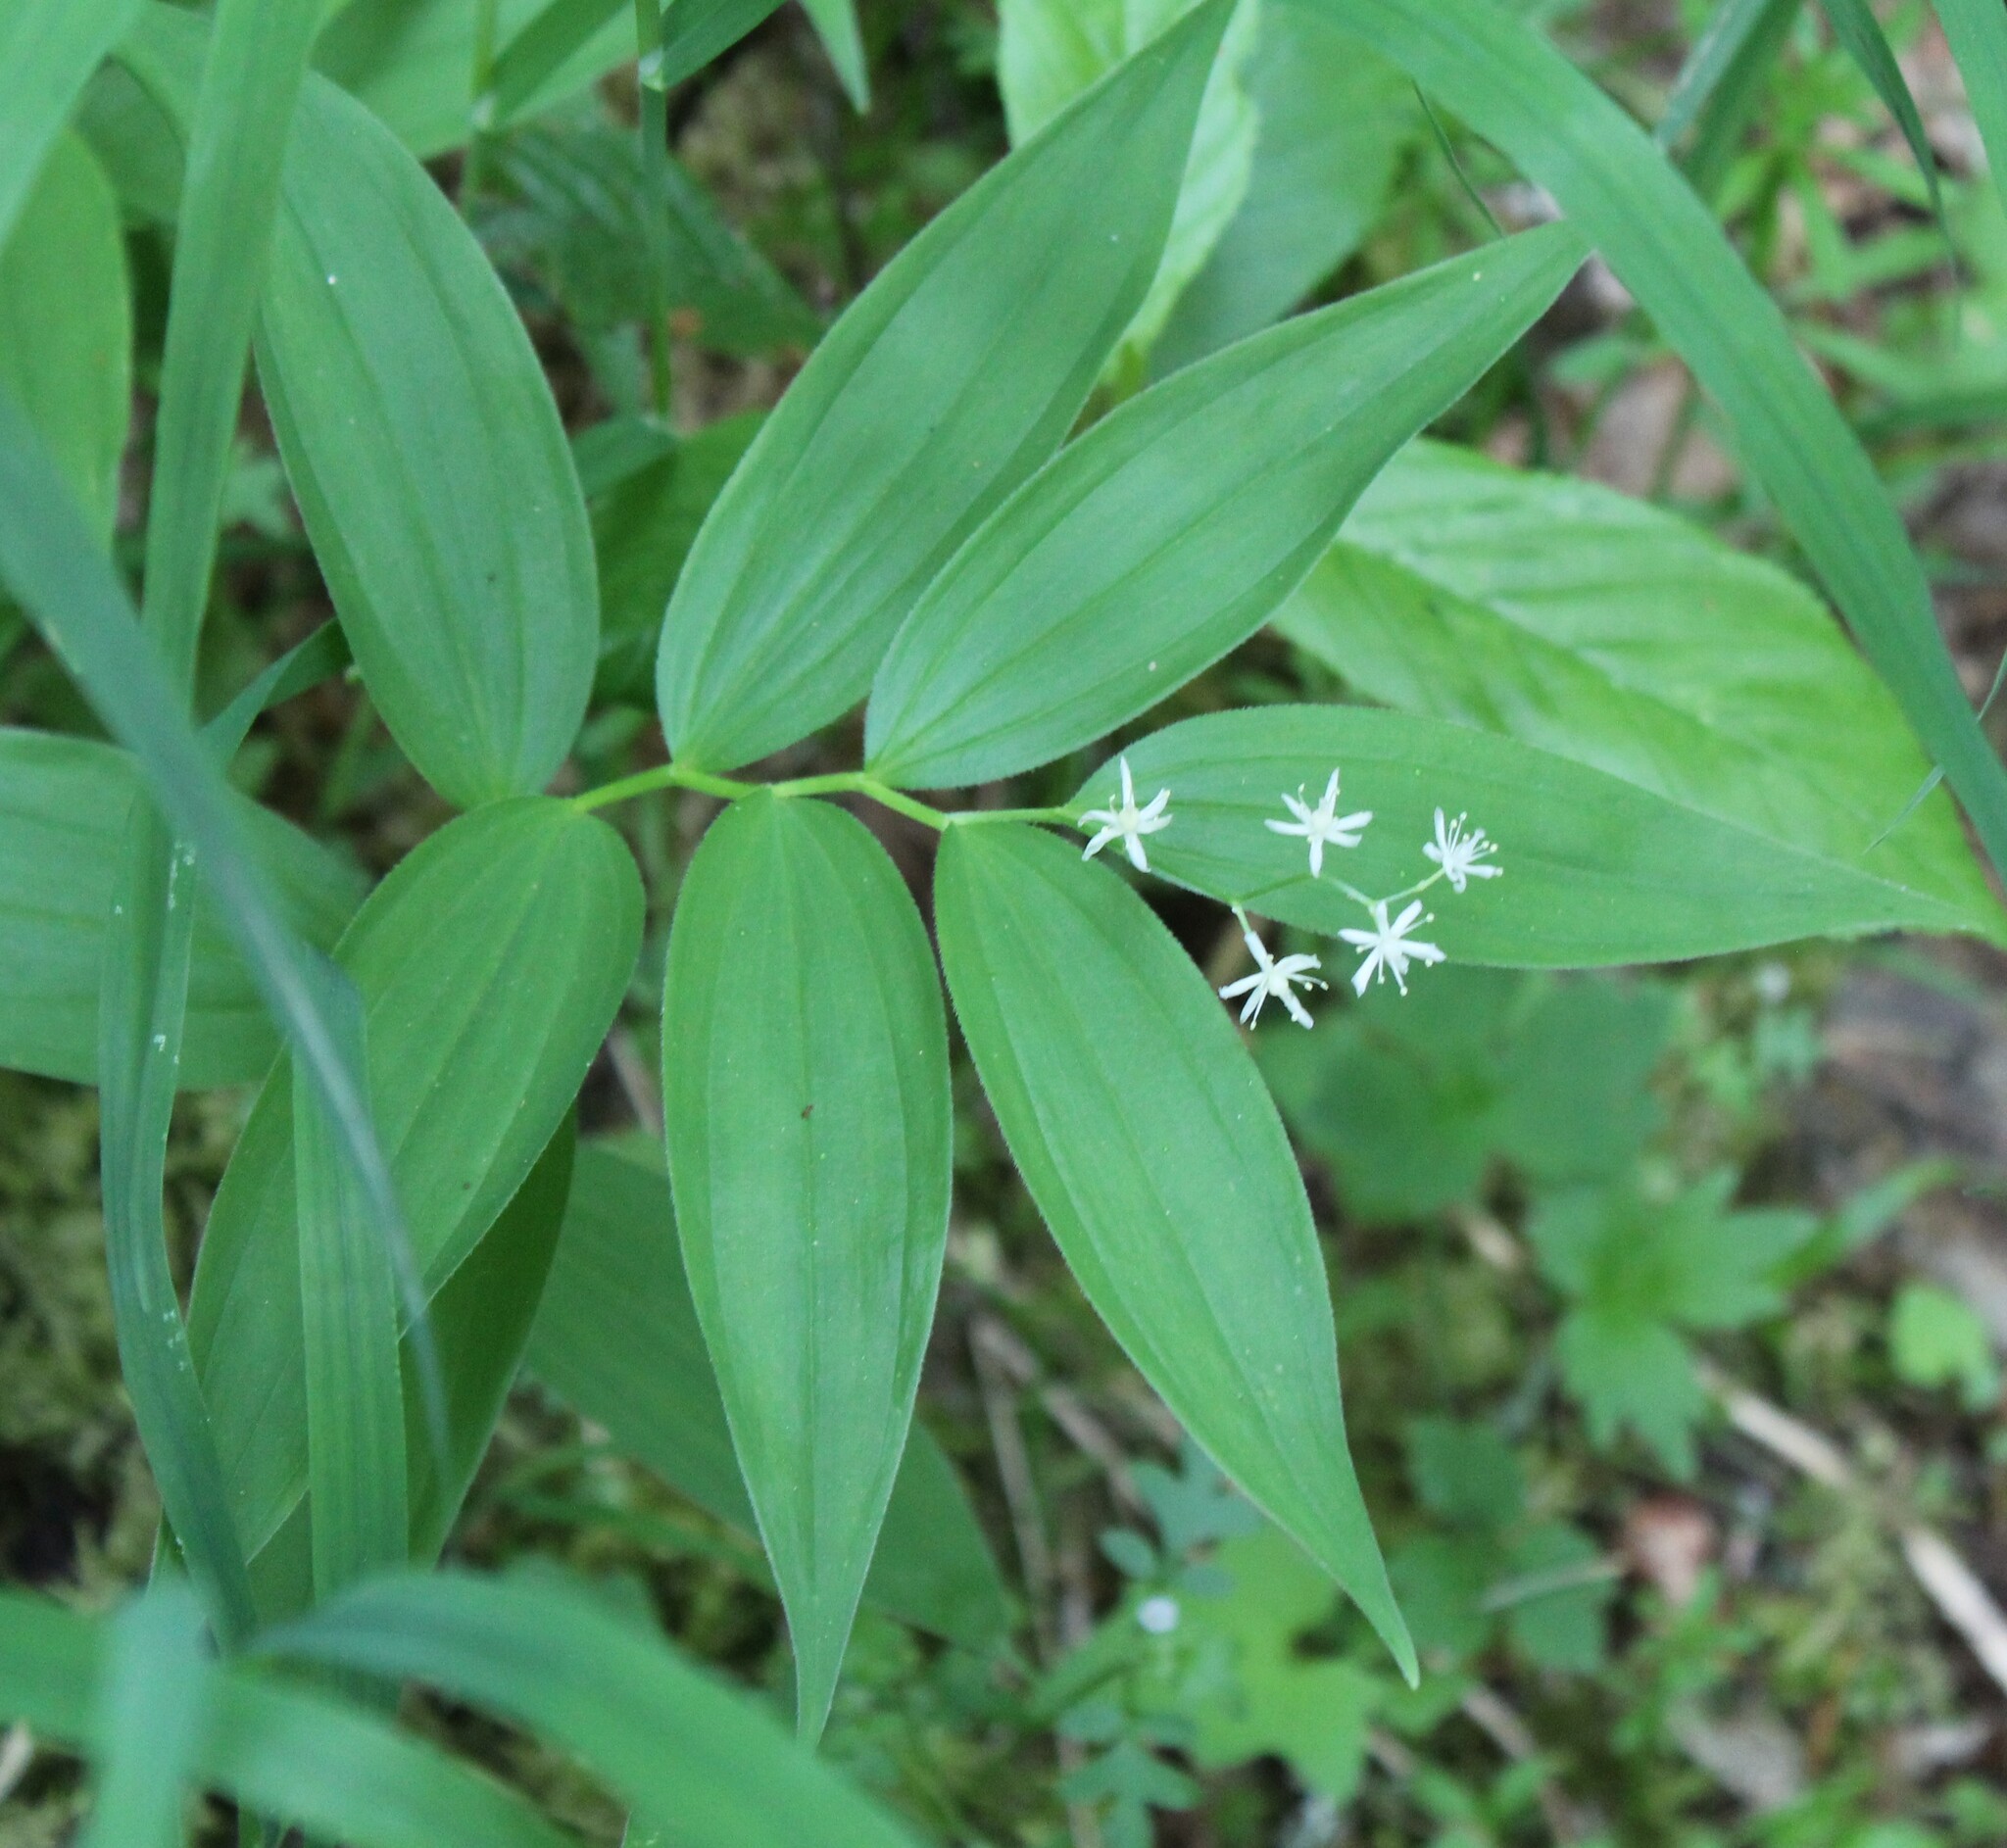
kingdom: Plantae
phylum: Tracheophyta
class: Liliopsida
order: Asparagales
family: Asparagaceae
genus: Maianthemum
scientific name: Maianthemum stellatum
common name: Little false solomon's seal
